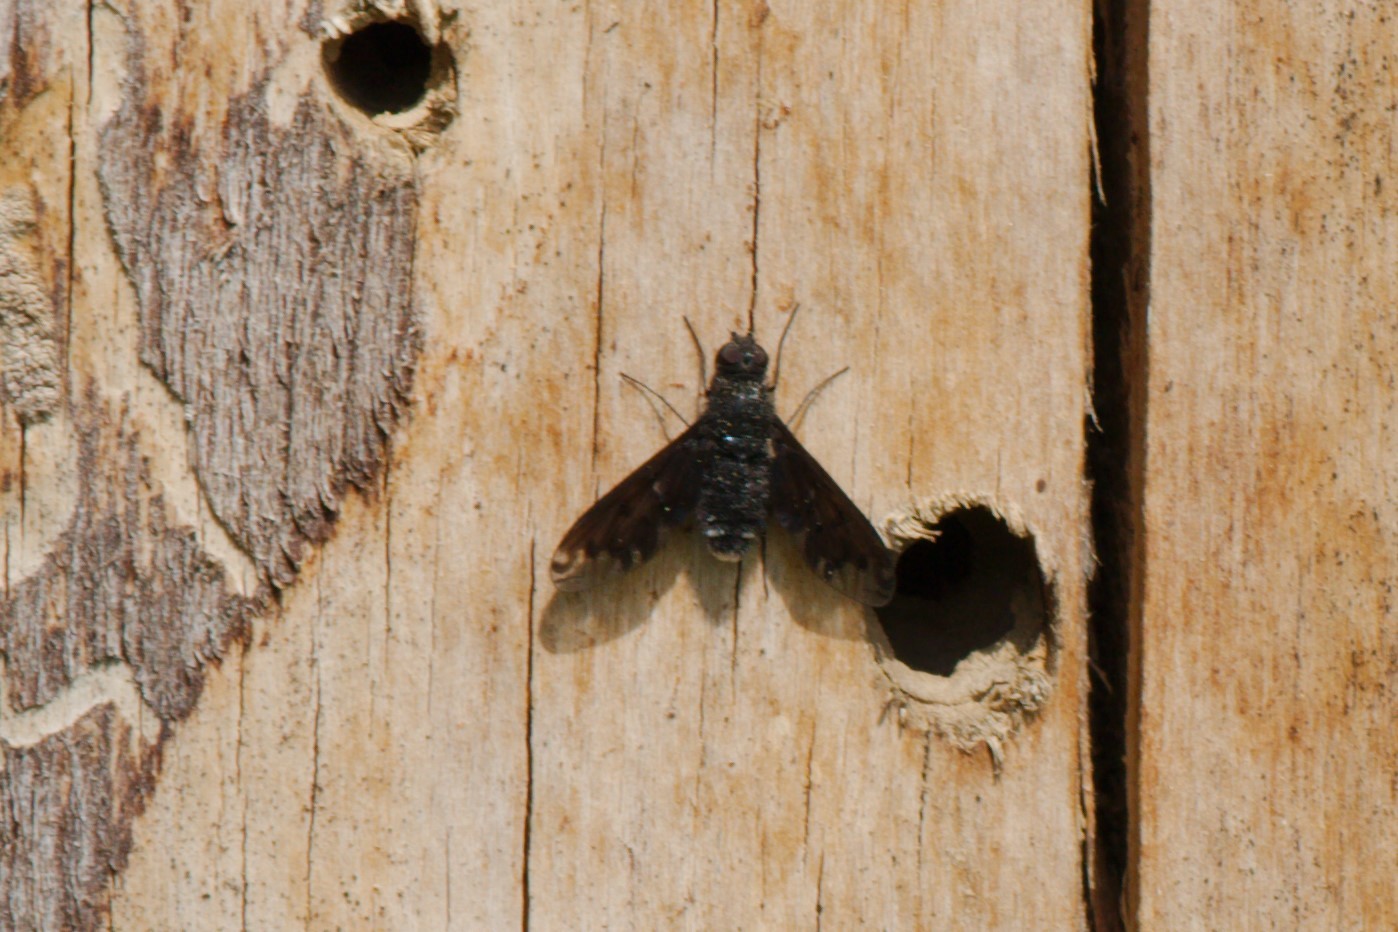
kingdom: Animalia
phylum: Arthropoda
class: Insecta
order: Diptera
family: Bombyliidae
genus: Anthrax
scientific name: Anthrax anthrax
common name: Anthracite bee-fly
